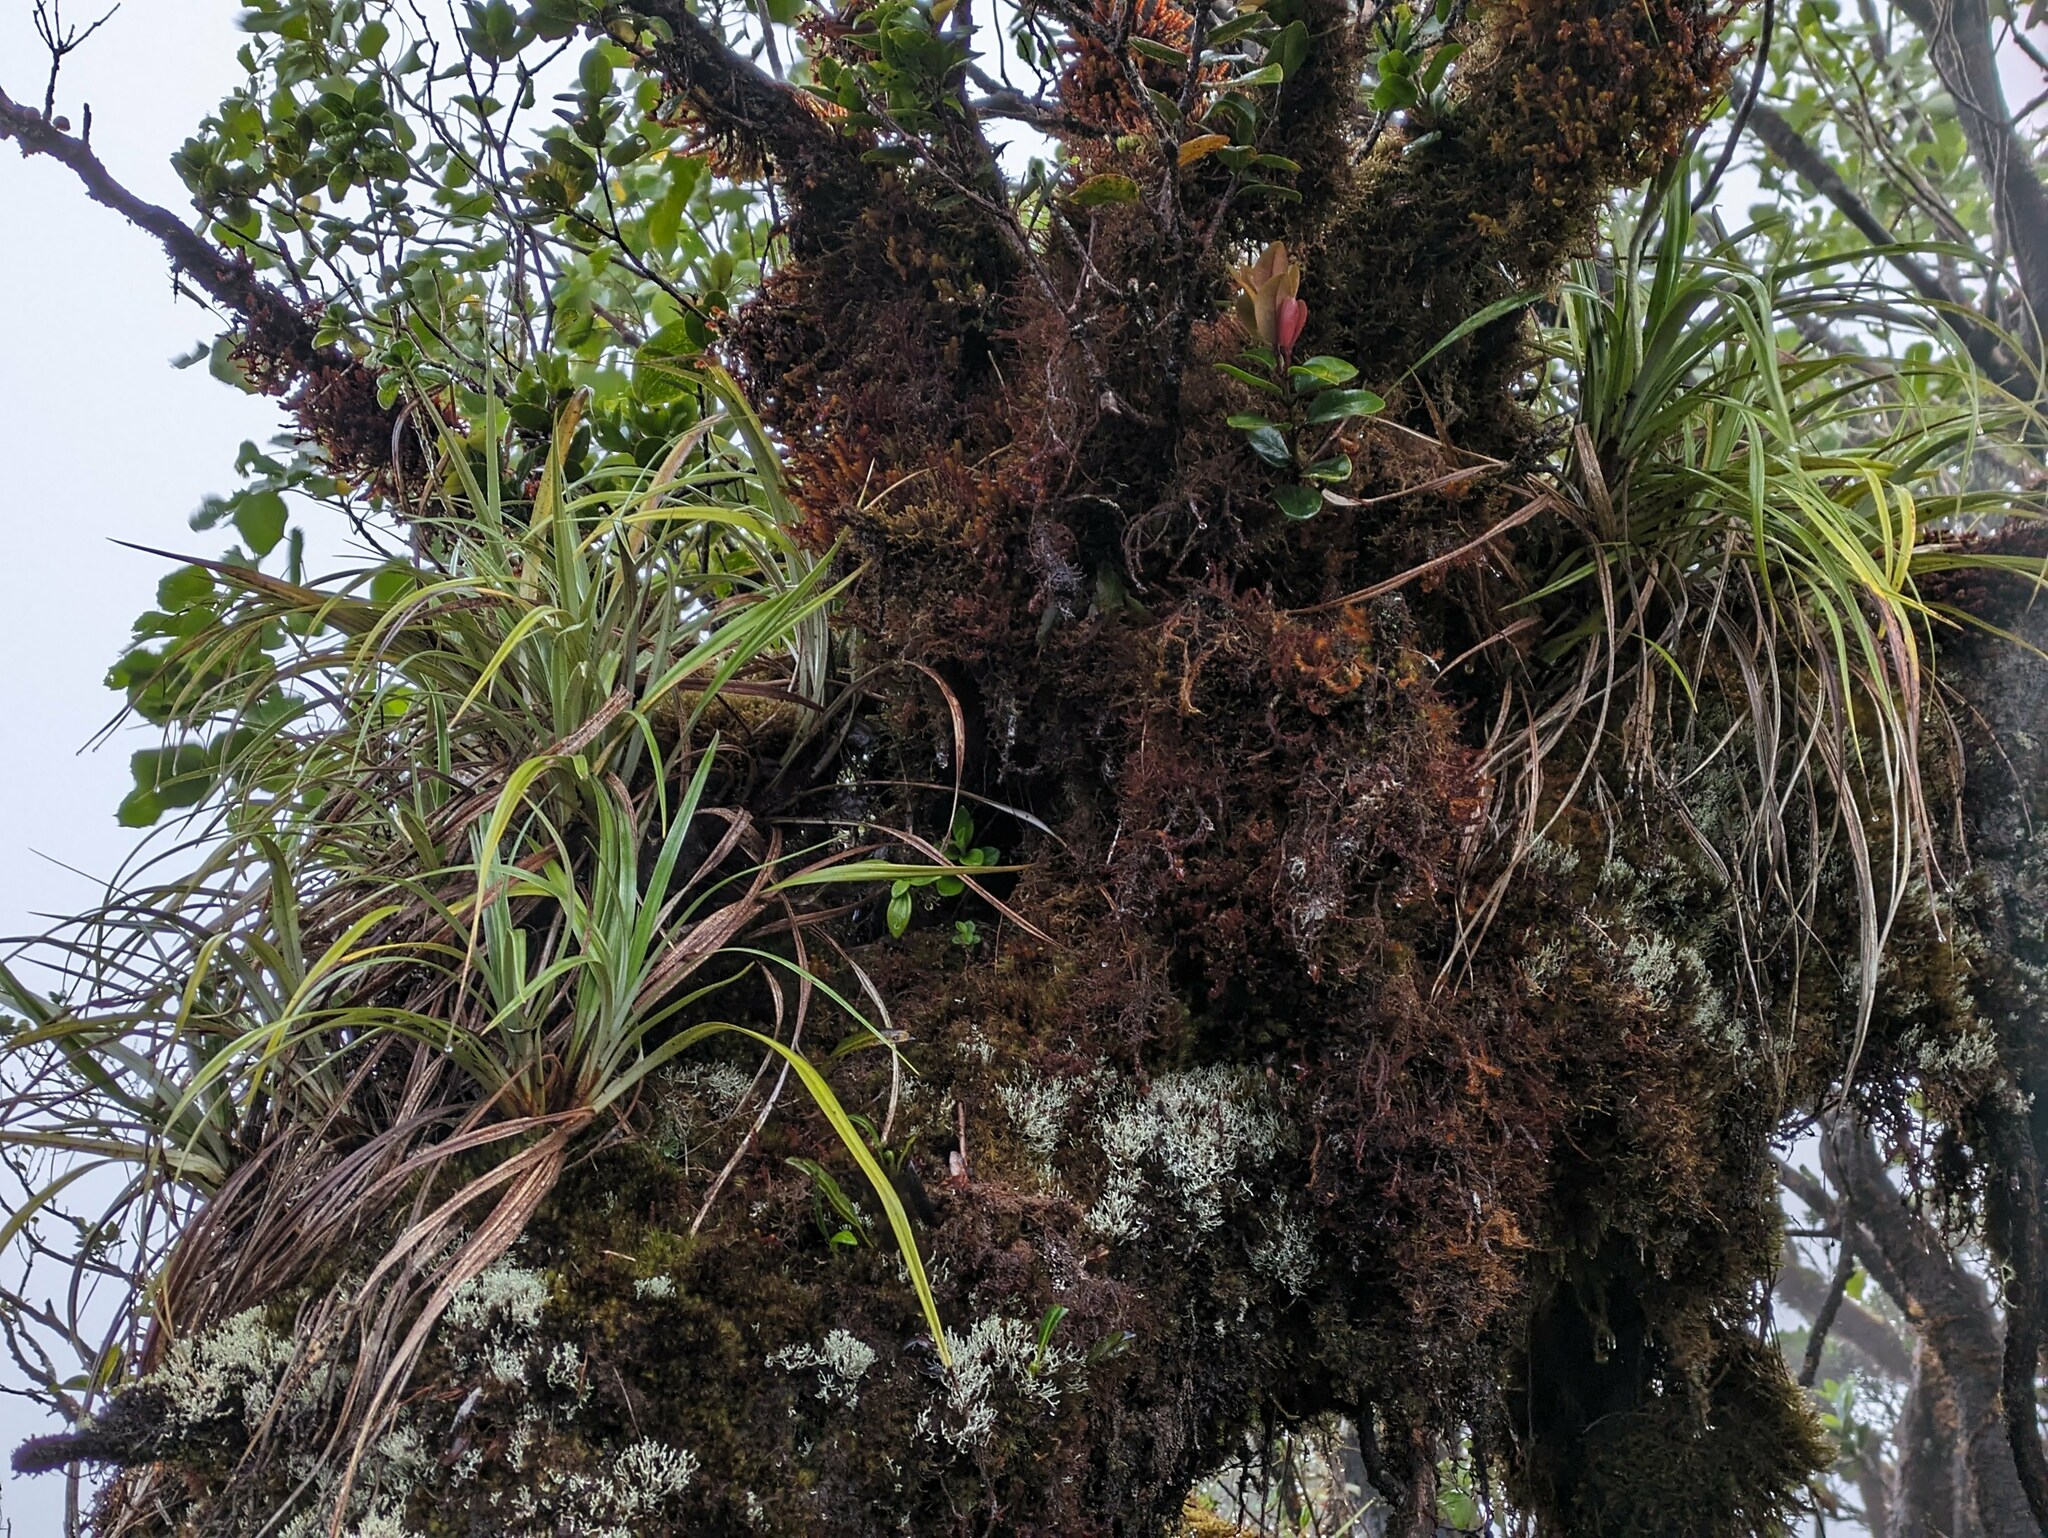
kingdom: Plantae
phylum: Tracheophyta
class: Liliopsida
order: Asparagales
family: Asteliaceae
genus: Astelia
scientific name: Astelia argyrocoma
